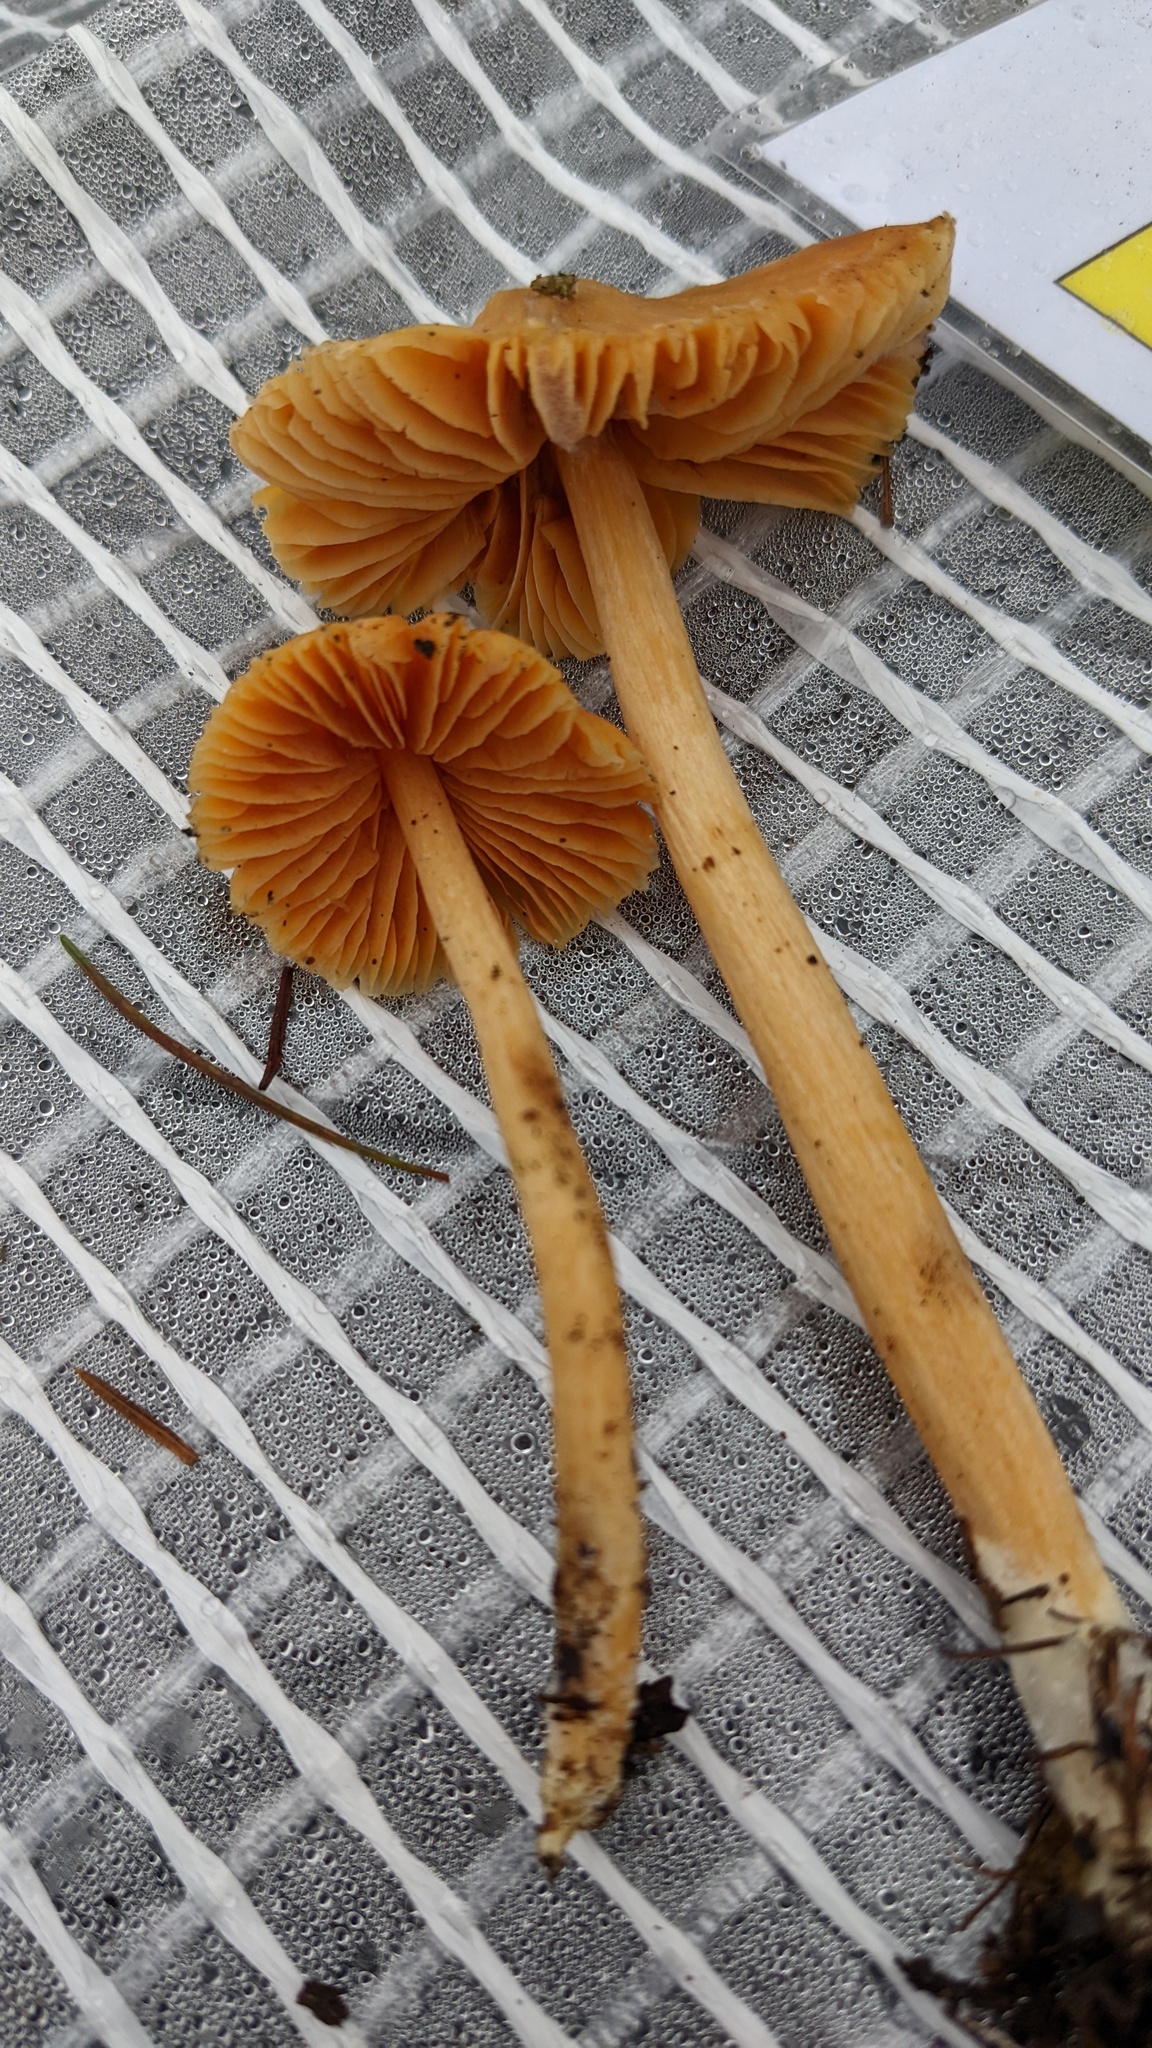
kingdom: Fungi
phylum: Basidiomycota
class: Agaricomycetes
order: Agaricales
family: Entolomataceae
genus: Entoloma
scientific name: Entoloma quadratum
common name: Salmon pinkgill
